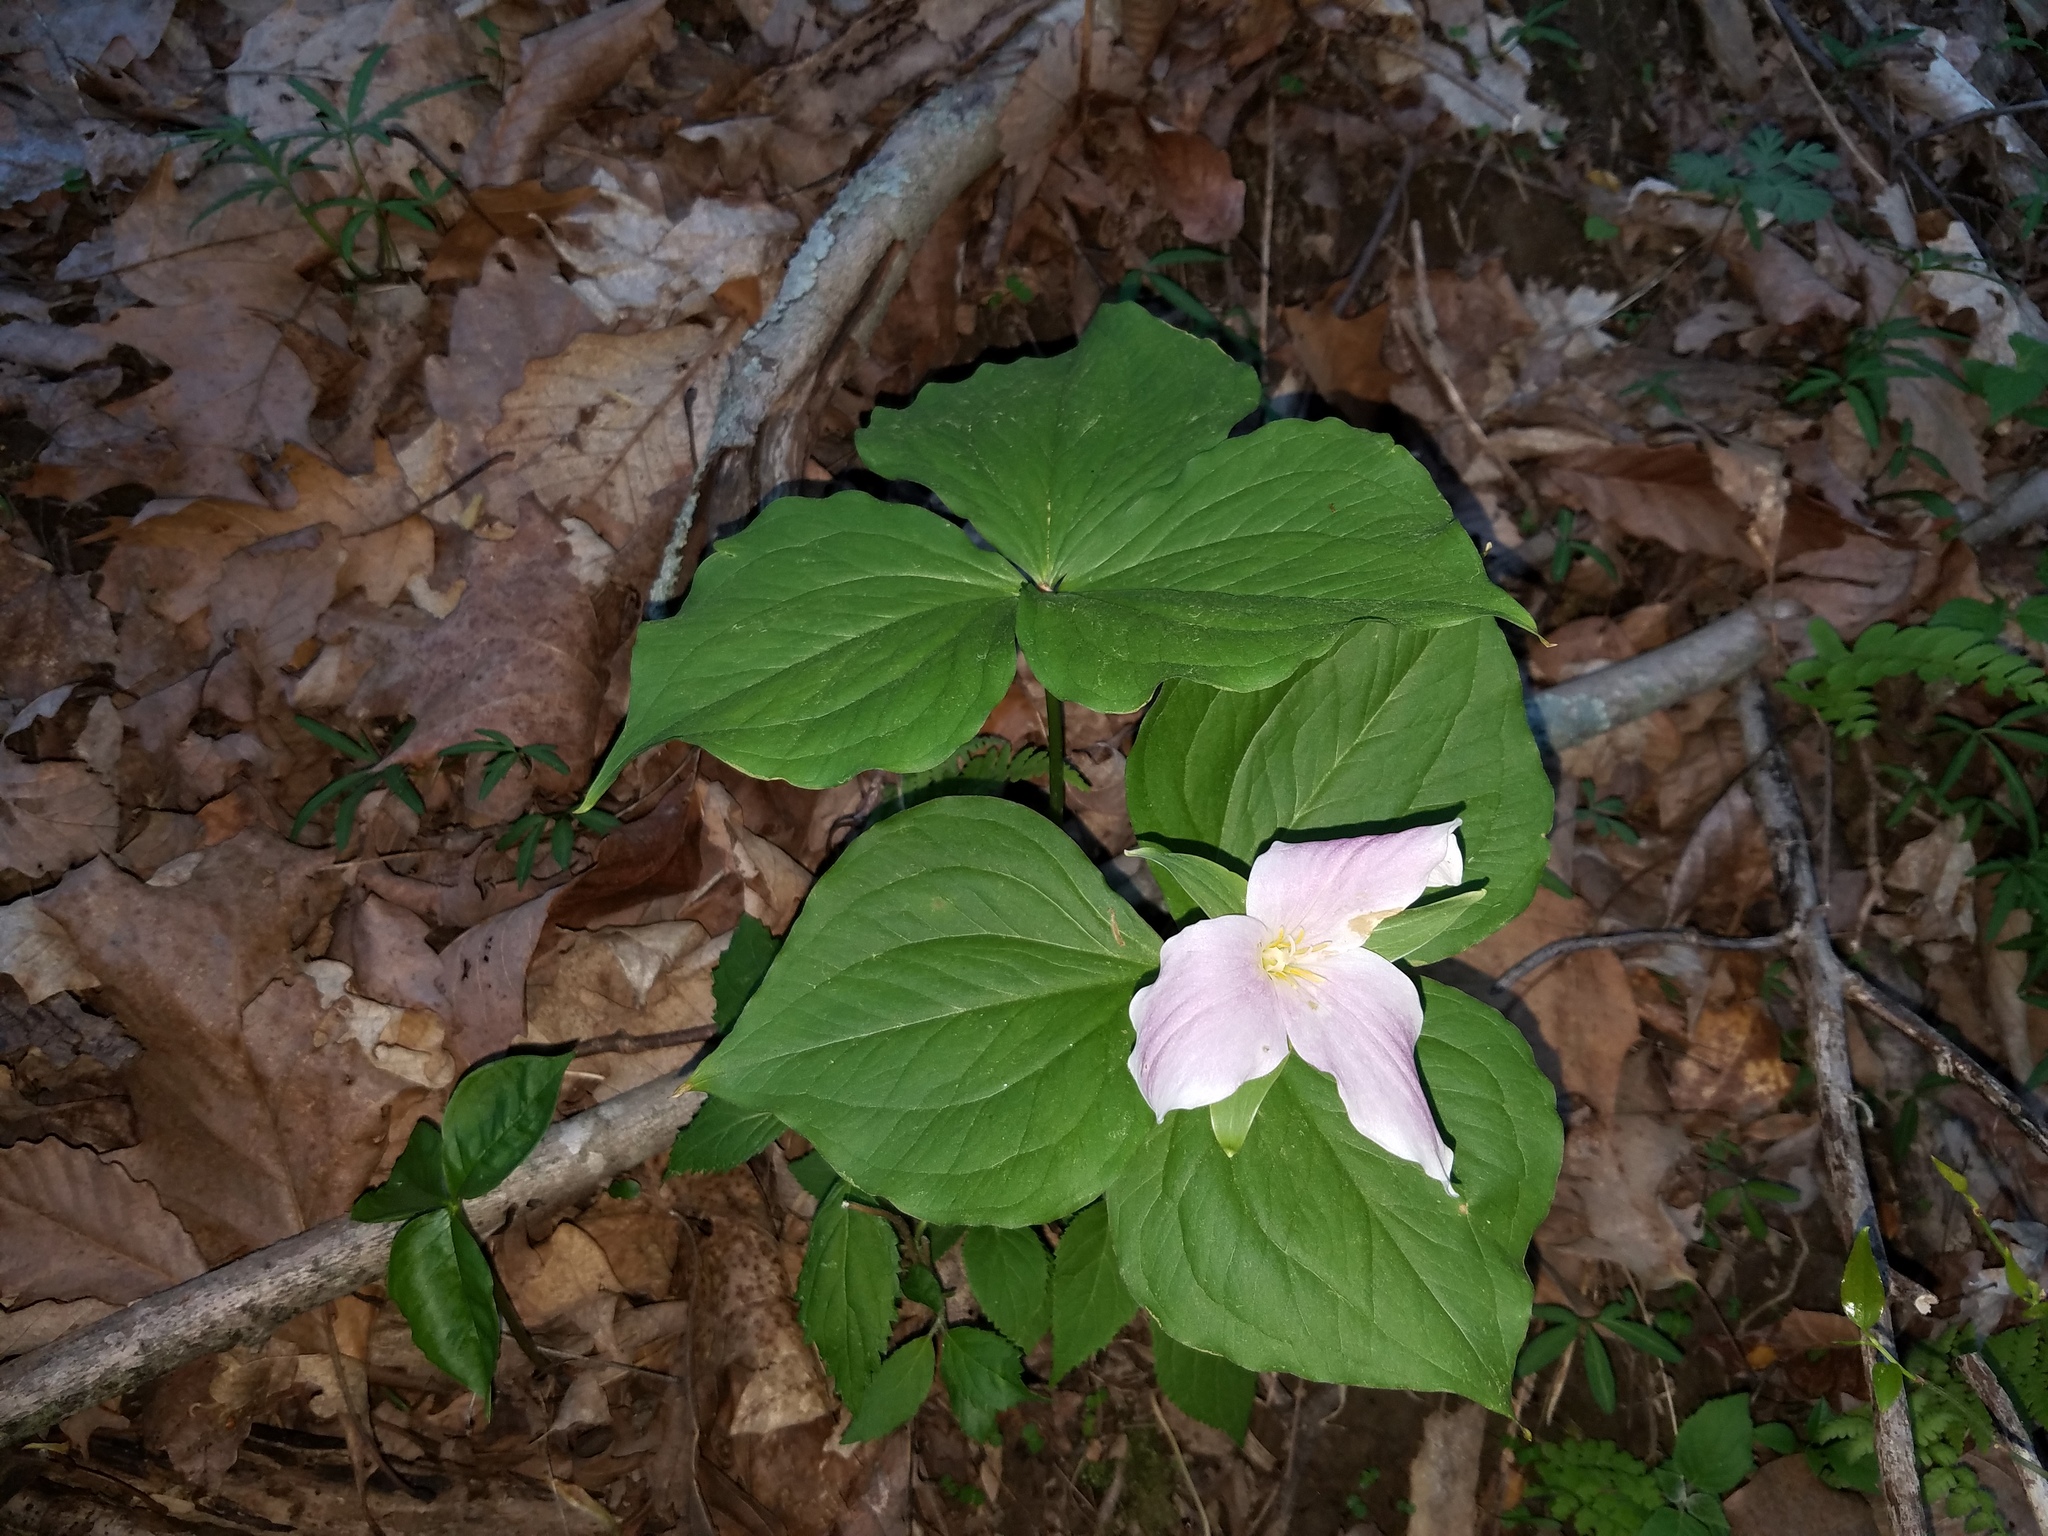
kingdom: Plantae
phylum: Tracheophyta
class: Liliopsida
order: Liliales
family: Melanthiaceae
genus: Trillium
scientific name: Trillium grandiflorum
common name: Great white trillium
